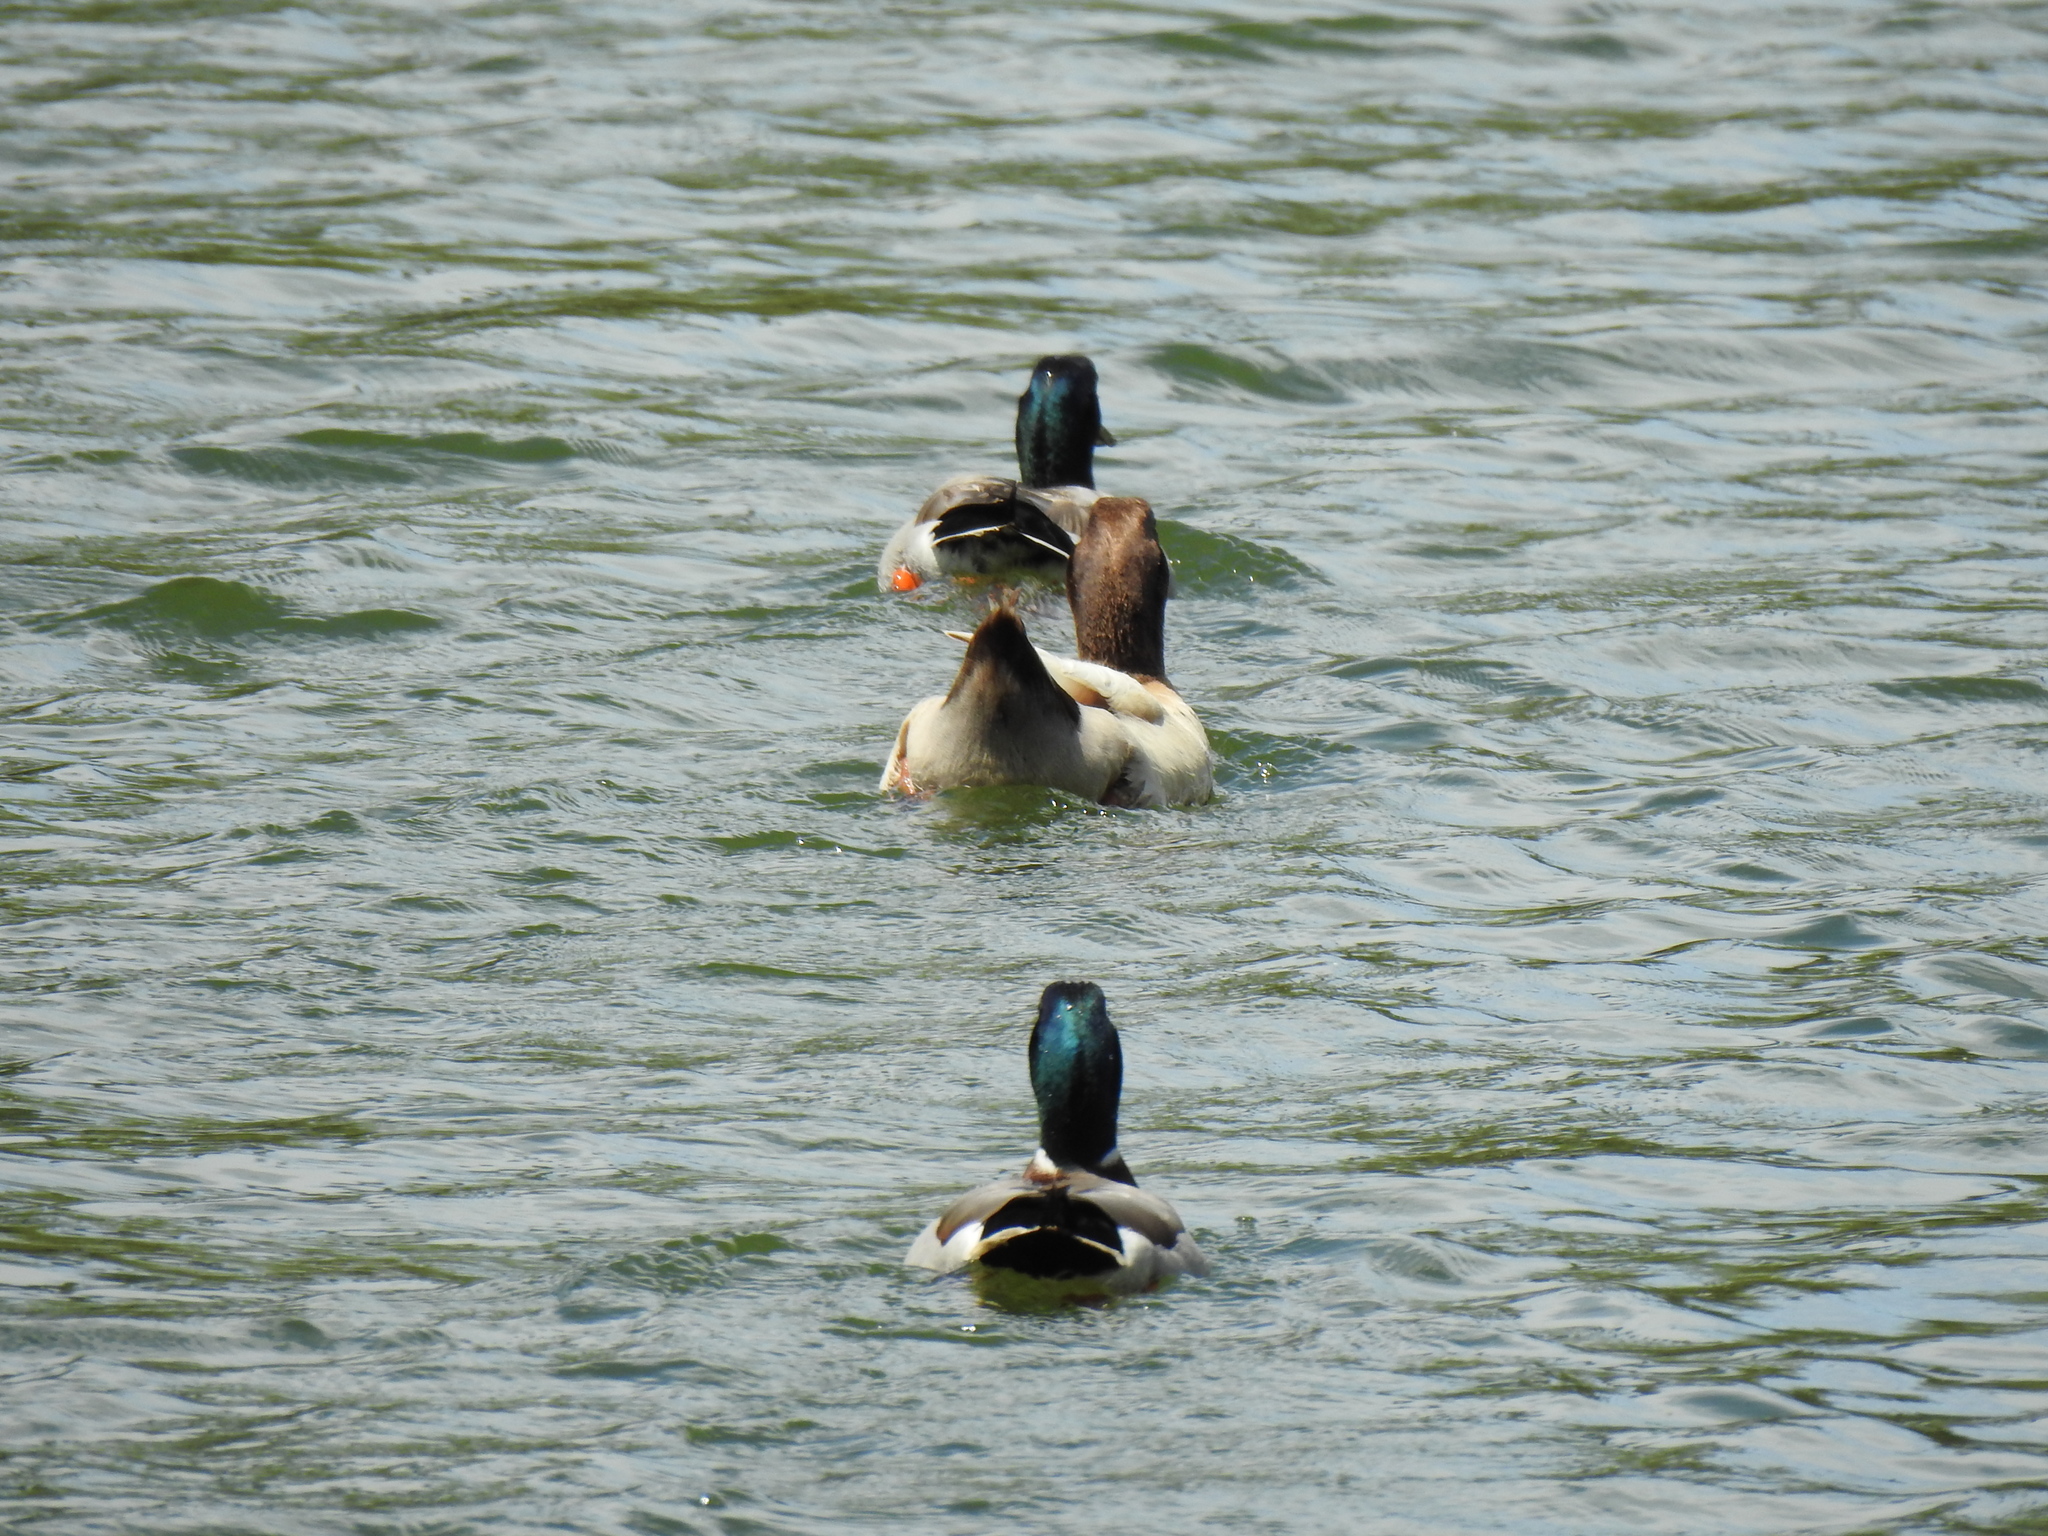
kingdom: Animalia
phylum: Chordata
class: Aves
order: Anseriformes
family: Anatidae
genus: Anas
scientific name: Anas platyrhynchos
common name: Mallard
